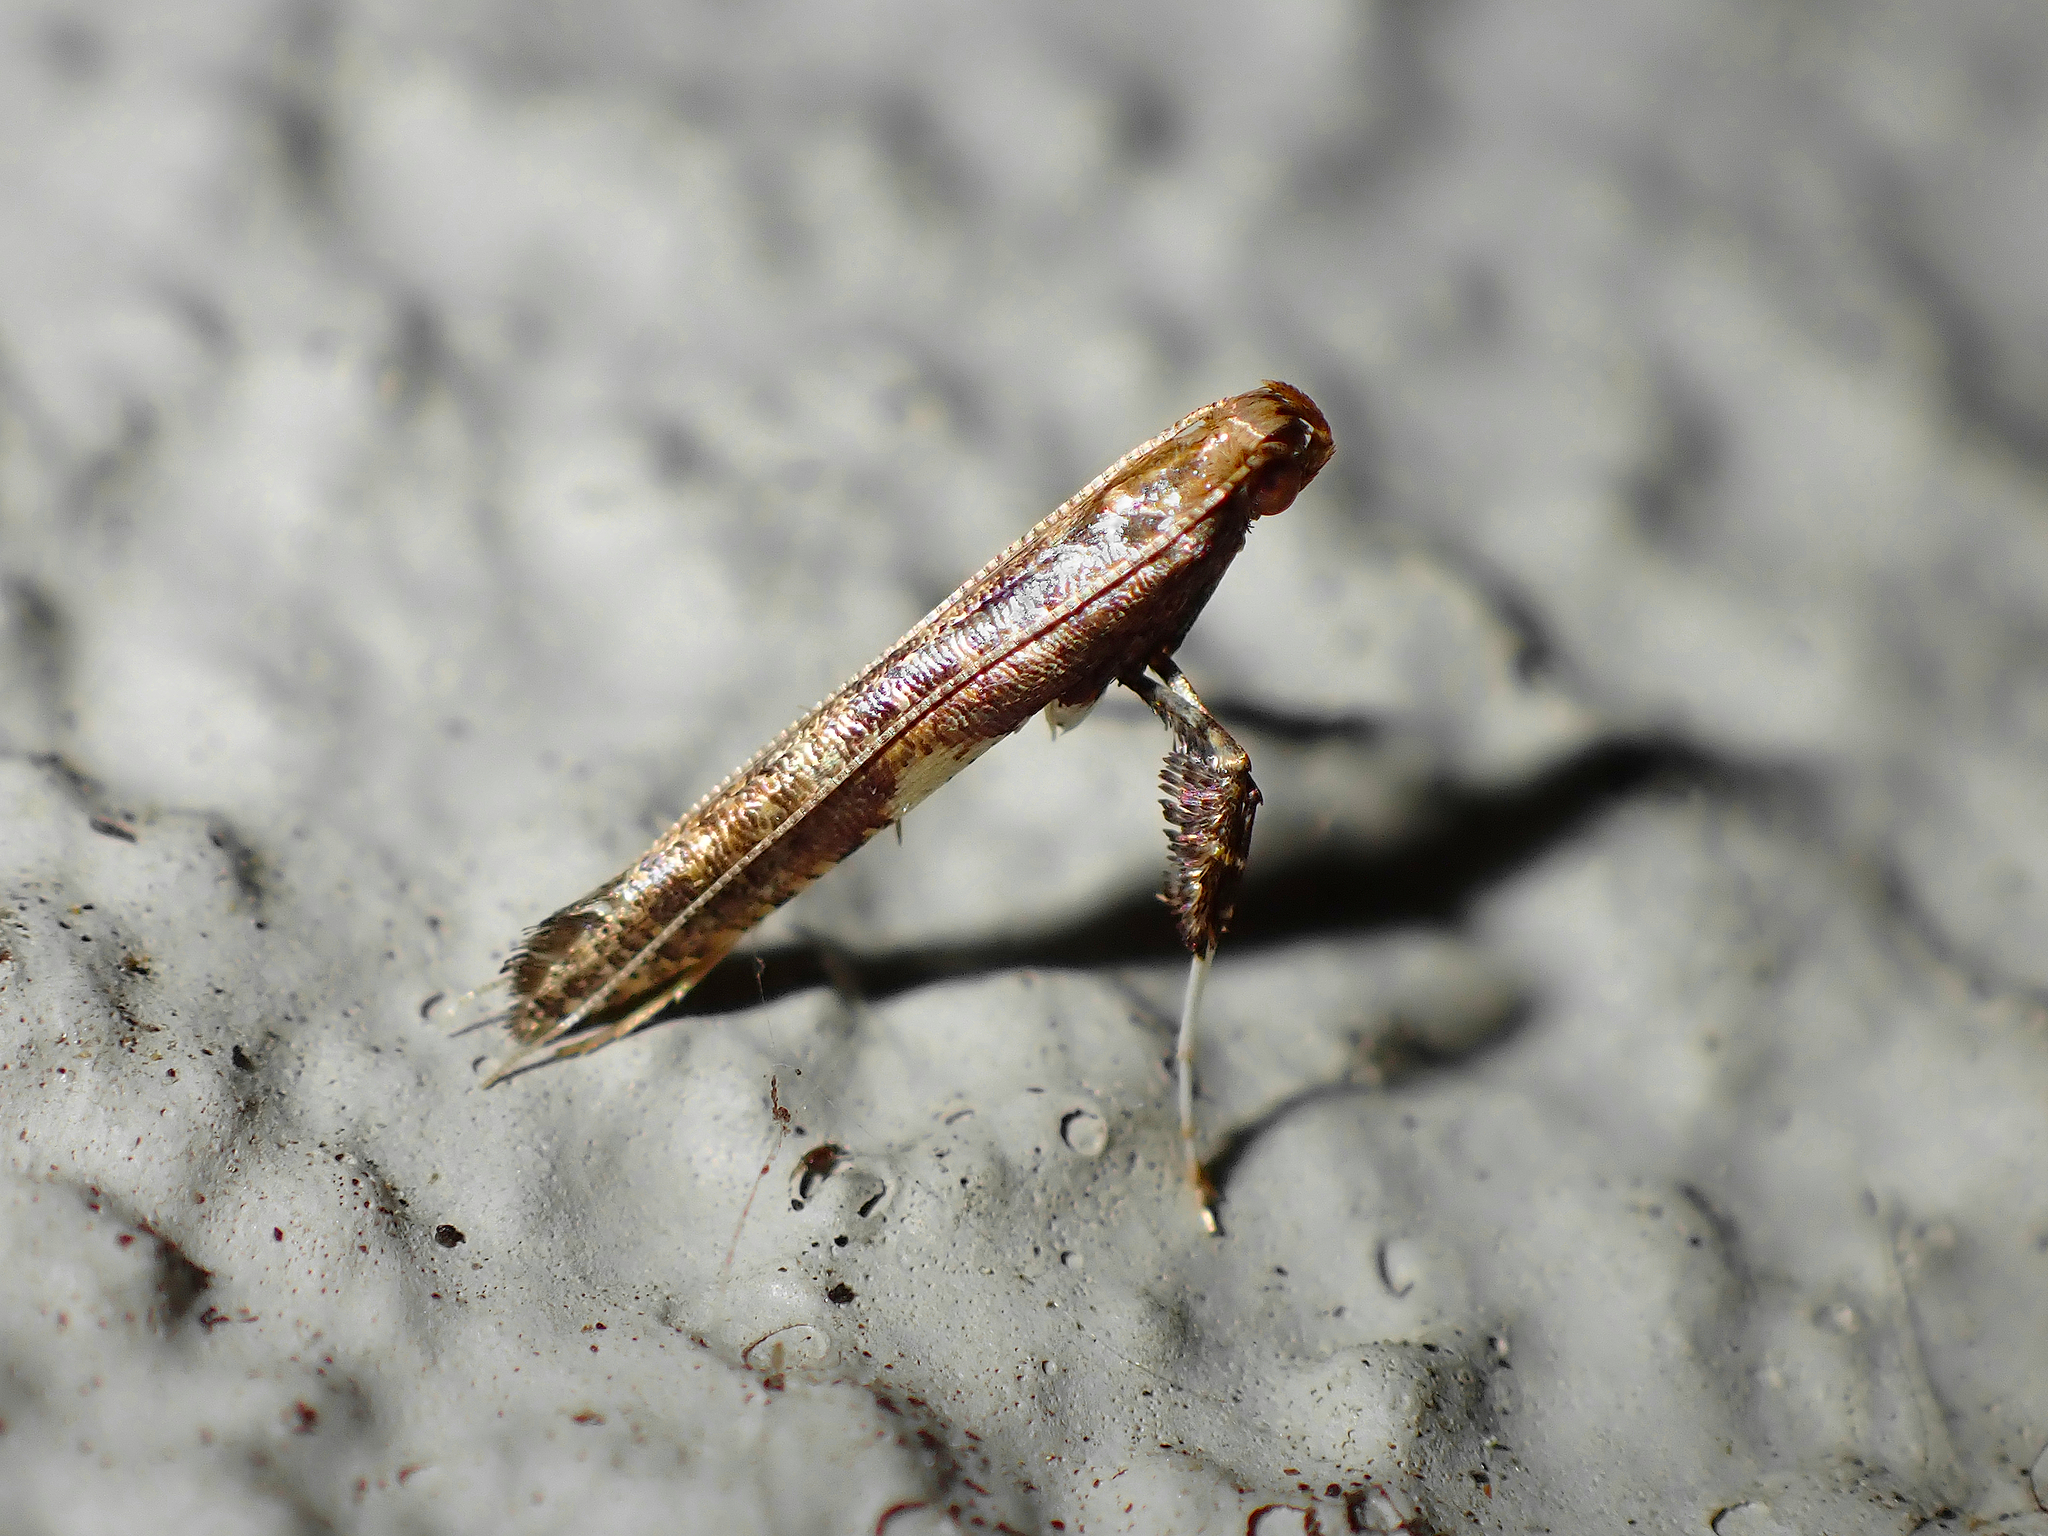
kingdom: Animalia
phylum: Arthropoda
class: Insecta
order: Lepidoptera
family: Gracillariidae
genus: Caloptilia
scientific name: Caloptilia chalcodelta
